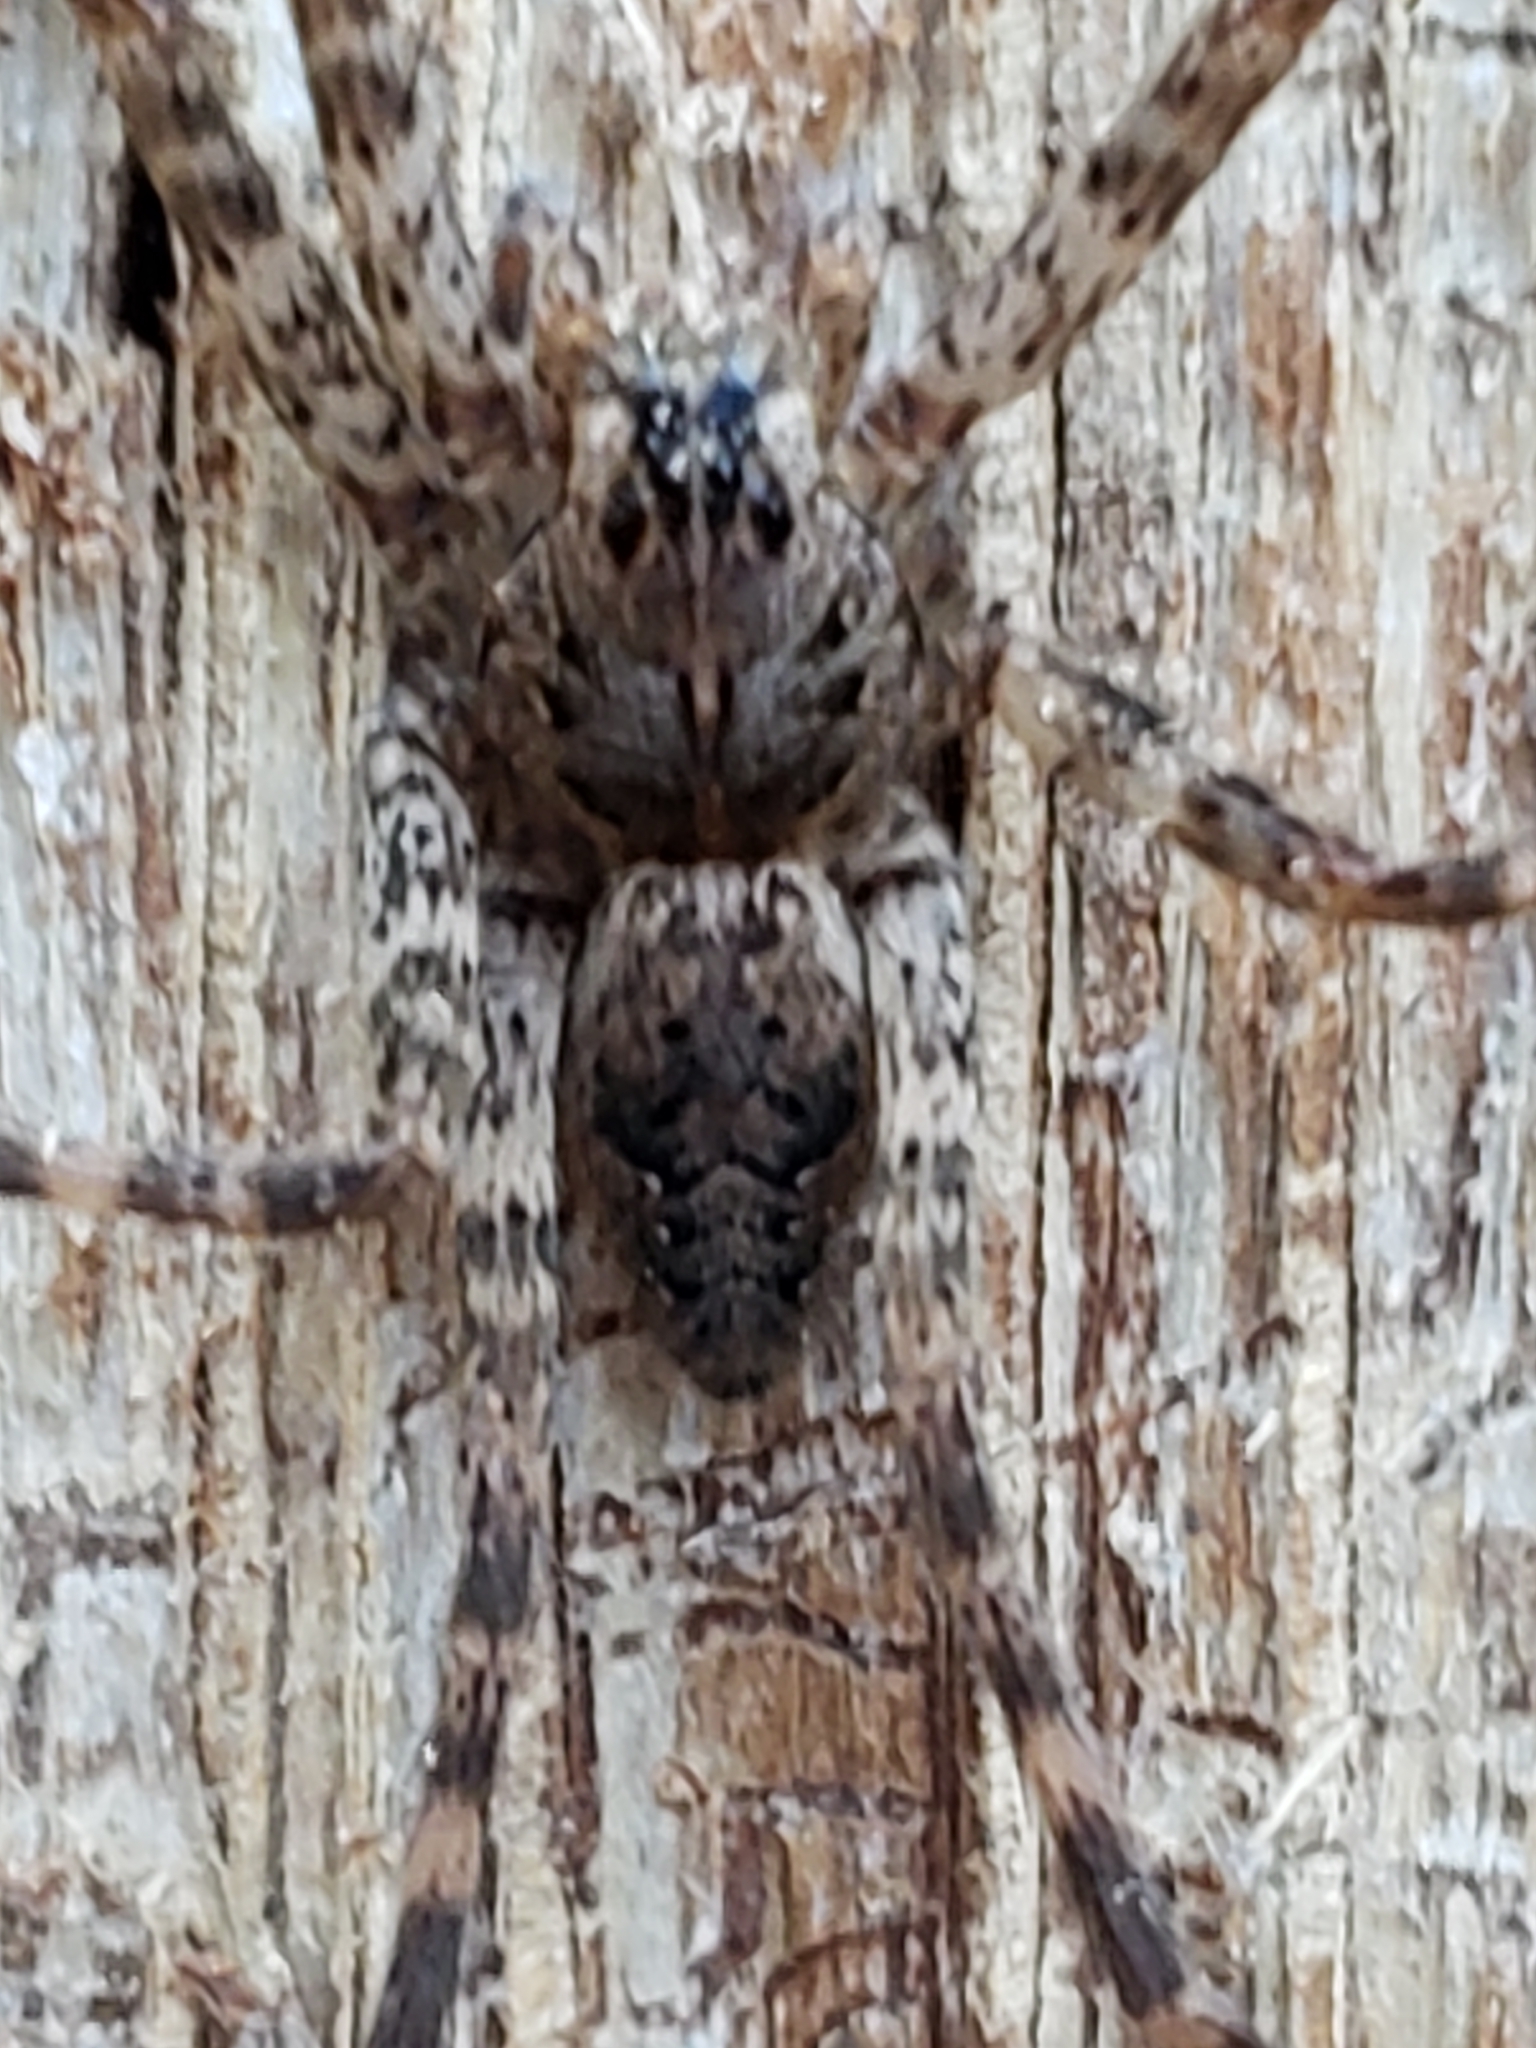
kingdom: Animalia
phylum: Arthropoda
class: Arachnida
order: Araneae
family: Pisauridae
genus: Dolomedes
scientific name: Dolomedes tenebrosus
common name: Dark fishing spider
